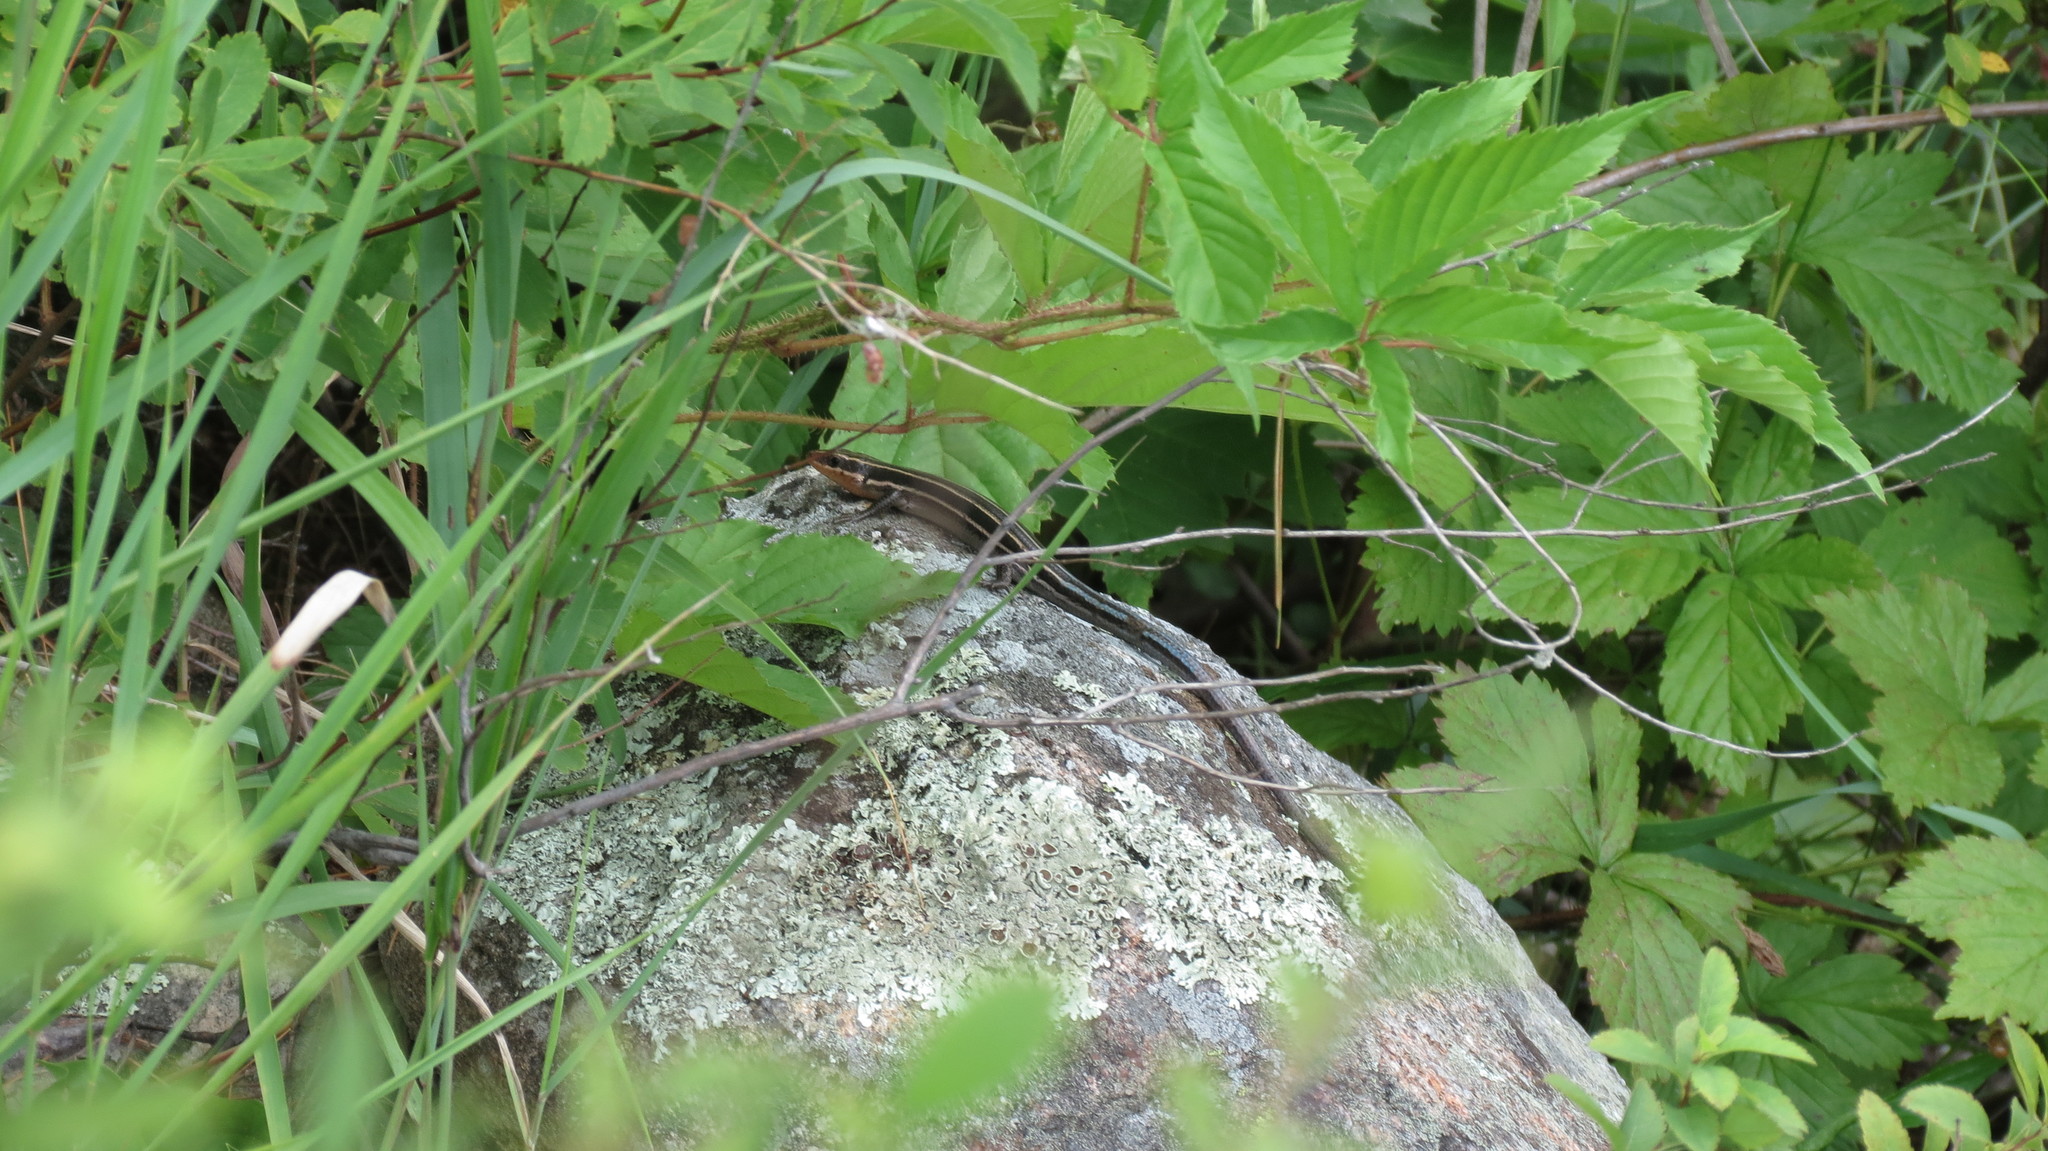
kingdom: Animalia
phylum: Chordata
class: Squamata
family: Scincidae
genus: Plestiodon
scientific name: Plestiodon fasciatus
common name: Five-lined skink
